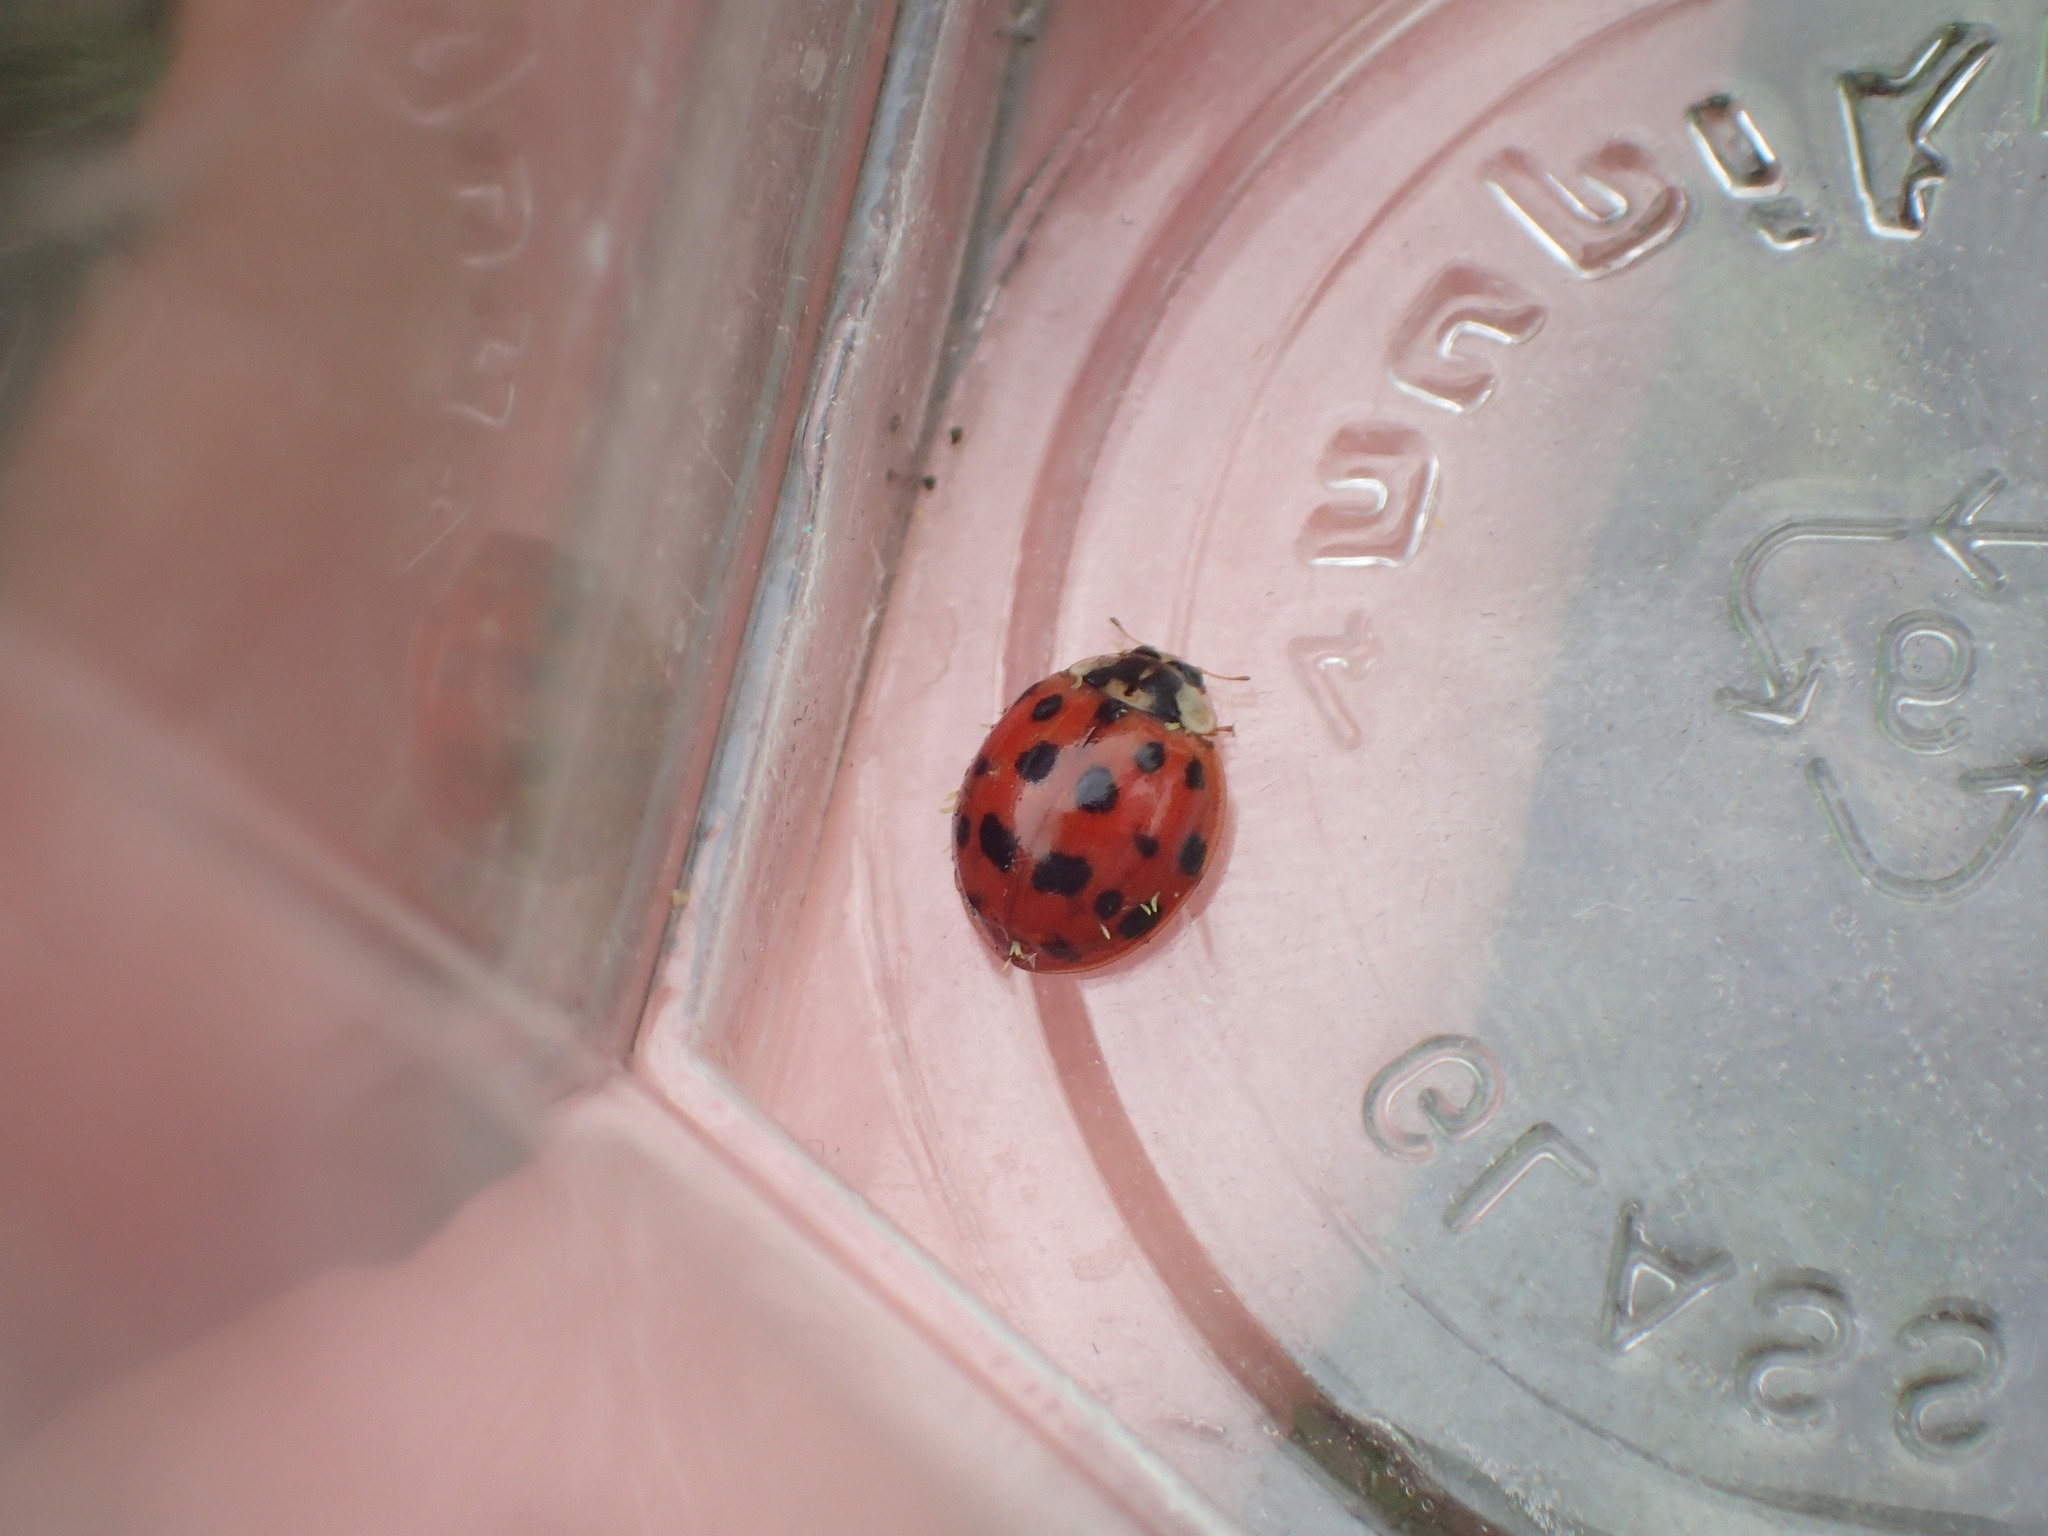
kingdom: Animalia
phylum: Arthropoda
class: Insecta
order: Coleoptera
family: Coccinellidae
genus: Harmonia
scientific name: Harmonia axyridis
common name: Harlequin ladybird
